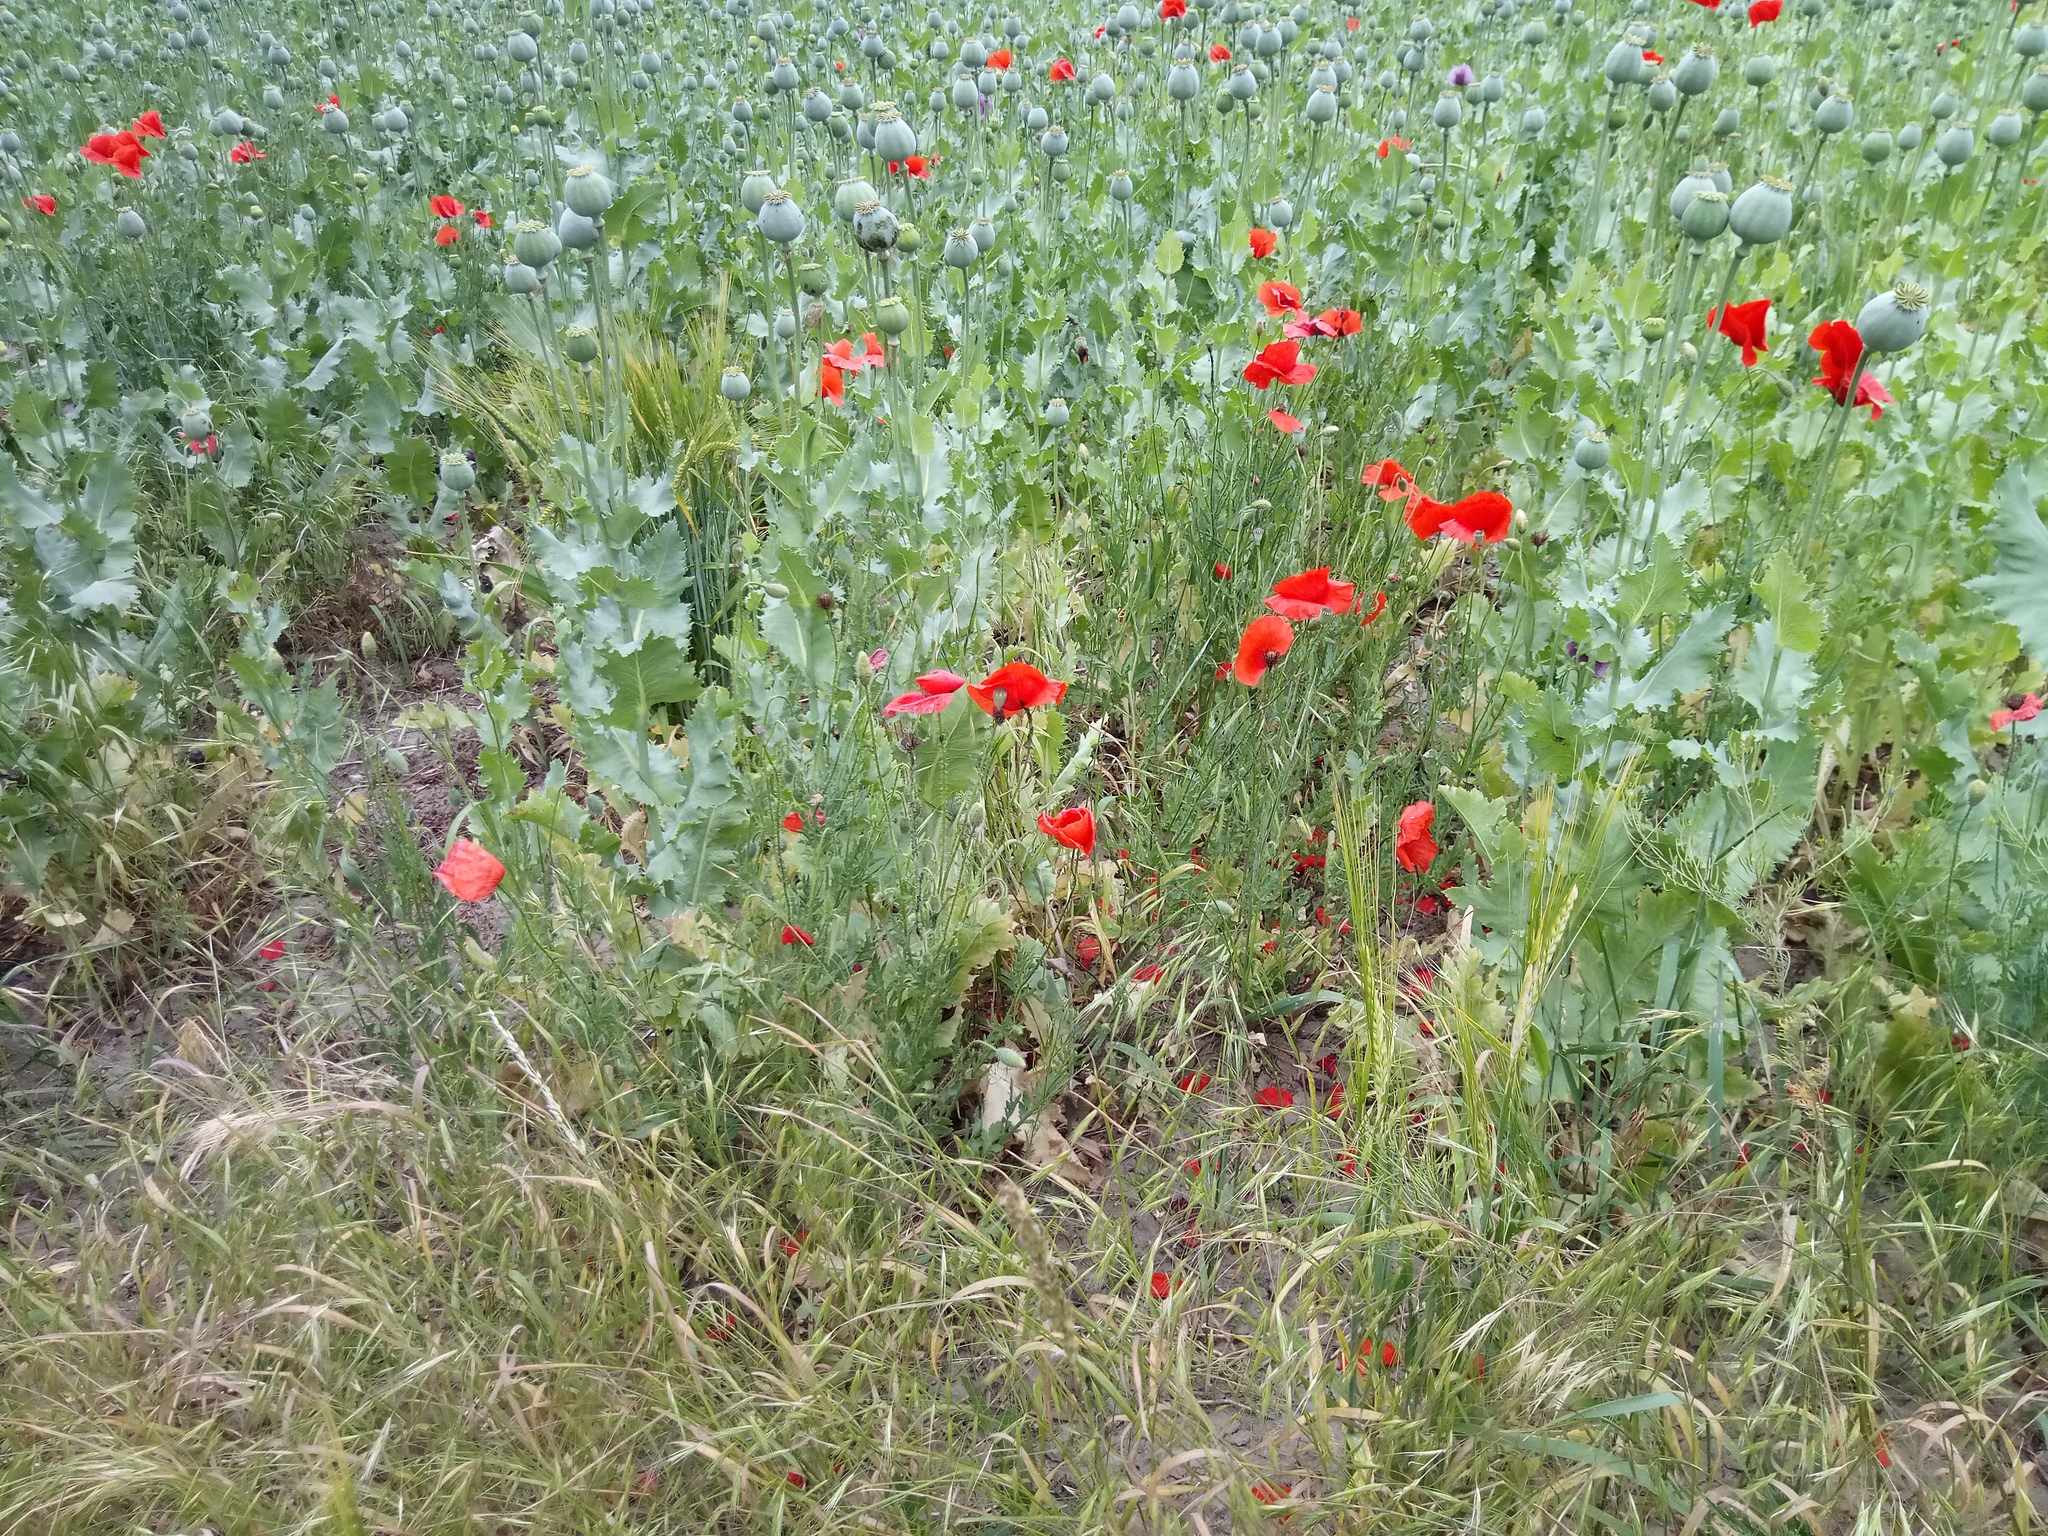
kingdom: Plantae
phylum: Tracheophyta
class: Magnoliopsida
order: Ranunculales
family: Papaveraceae
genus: Papaver
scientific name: Papaver rhoeas
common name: Corn poppy
